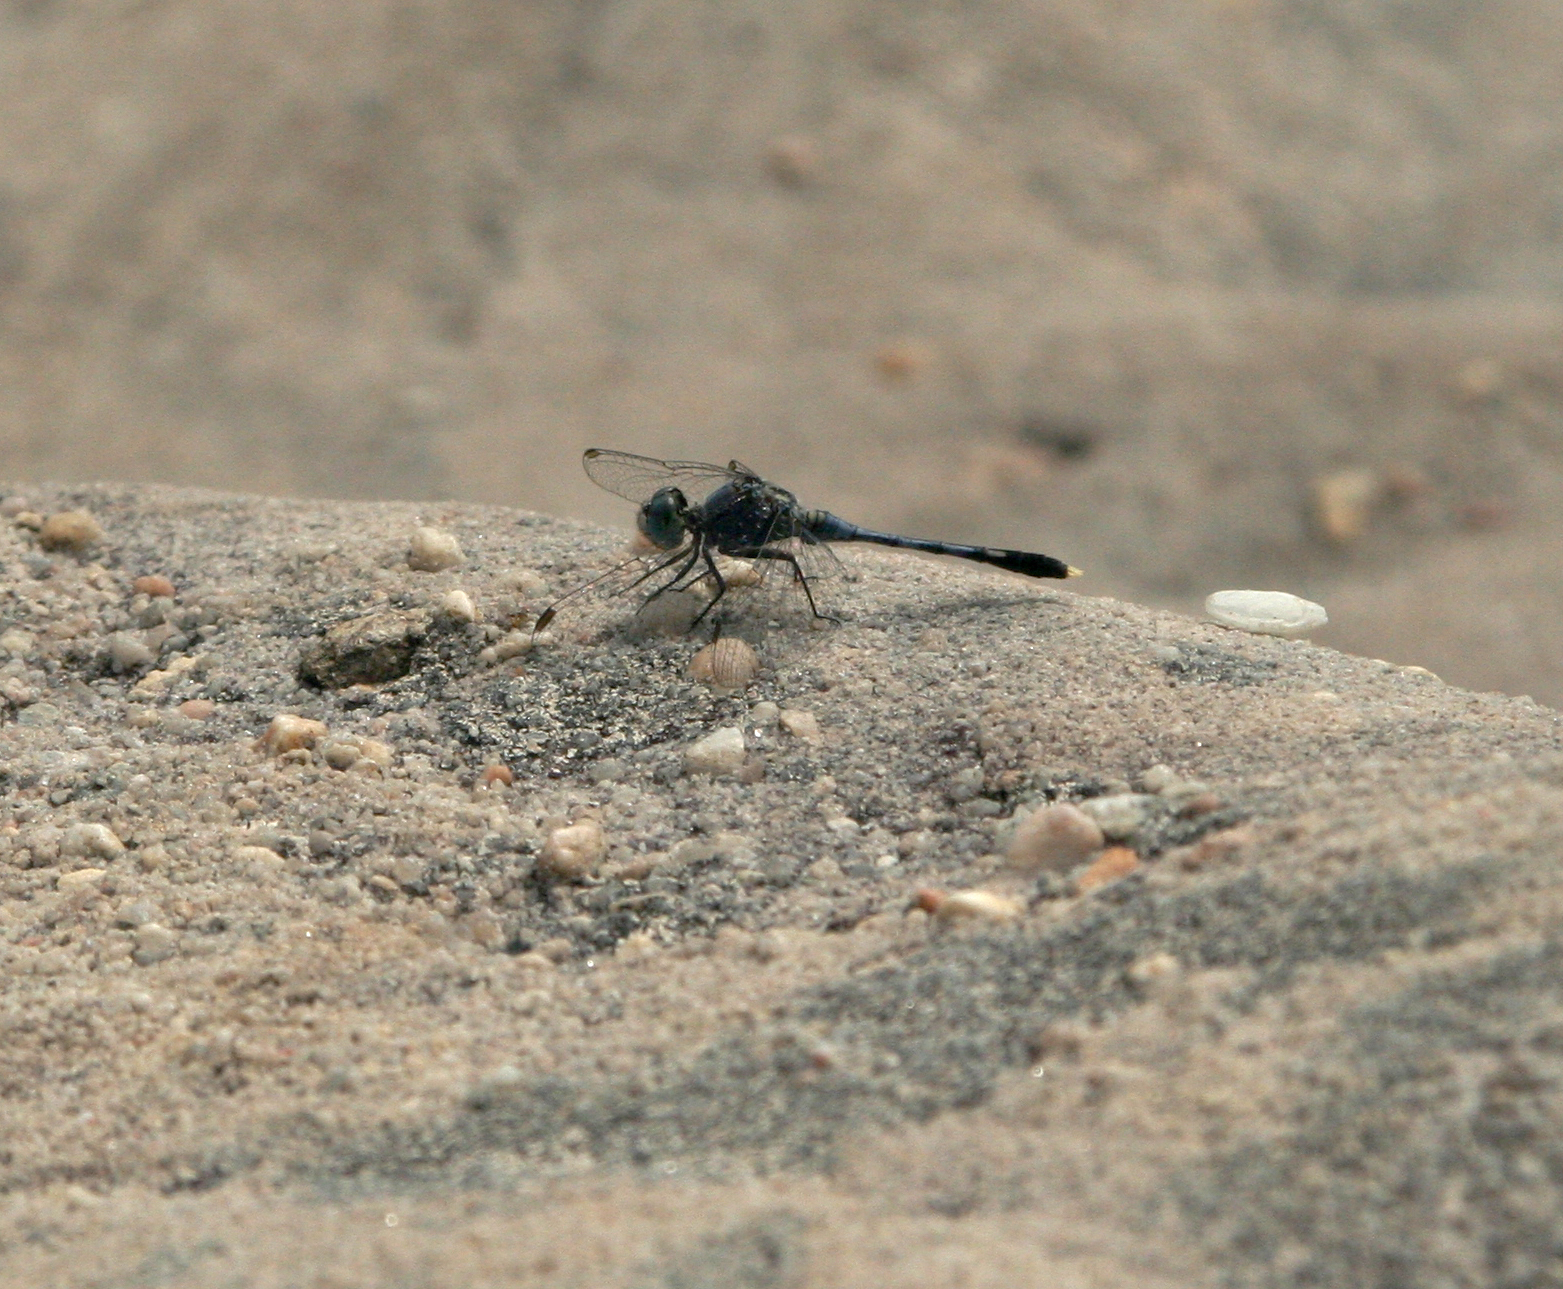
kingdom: Animalia
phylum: Arthropoda
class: Insecta
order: Odonata
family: Libellulidae
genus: Diplacodes
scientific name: Diplacodes trivialis
